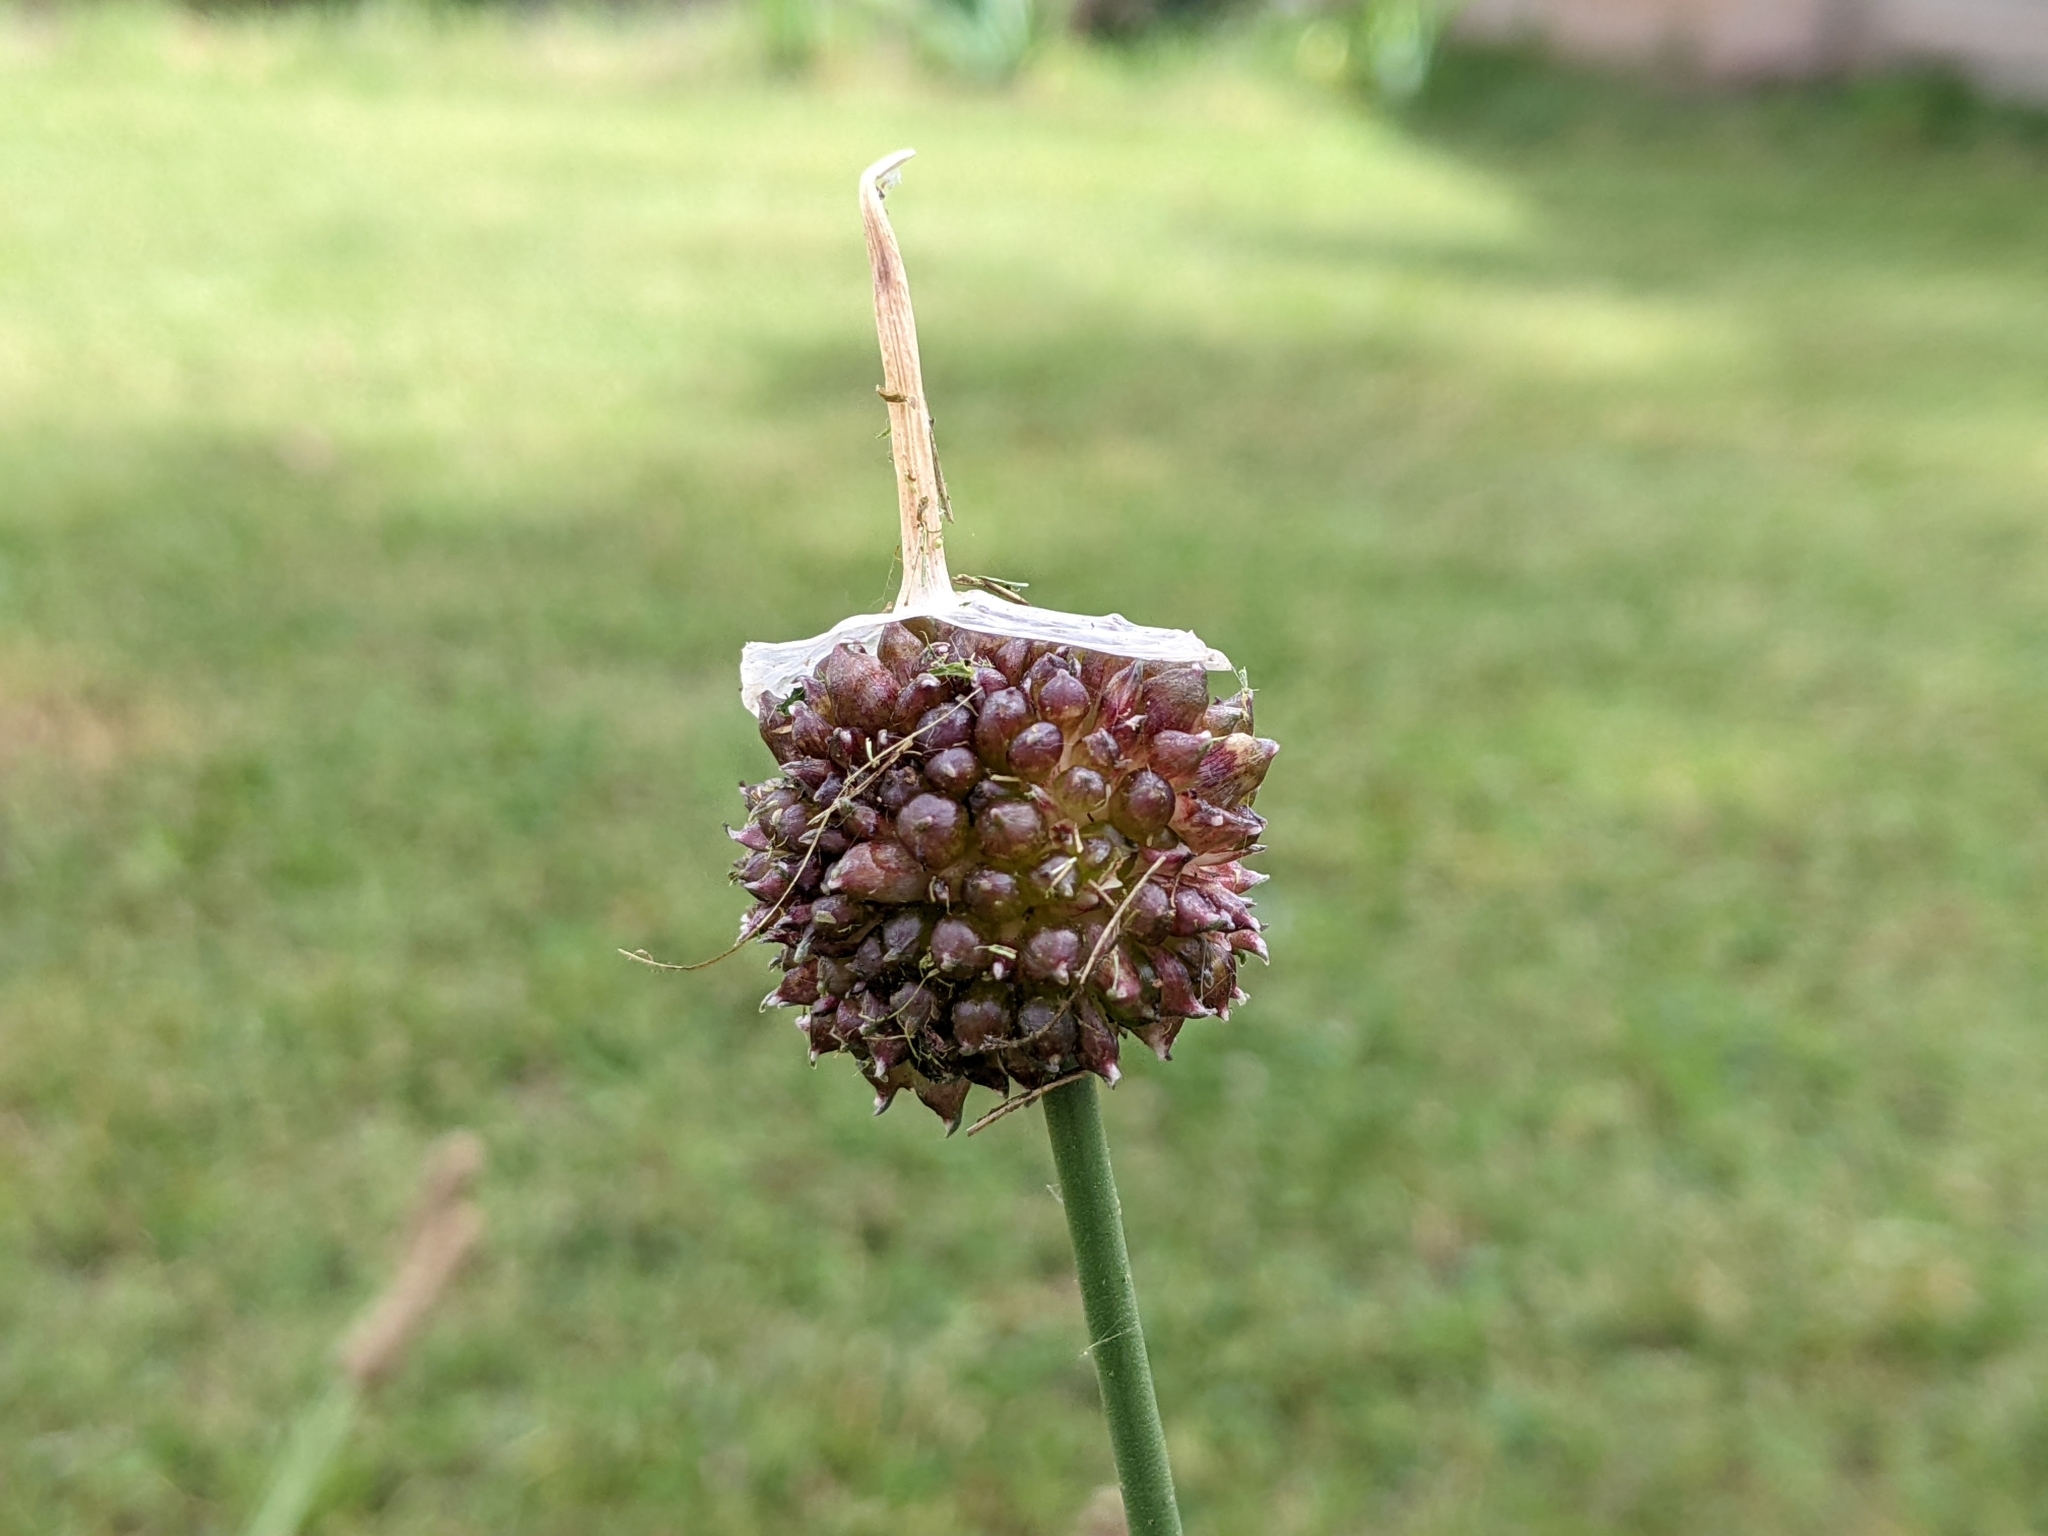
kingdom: Plantae
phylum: Tracheophyta
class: Liliopsida
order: Asparagales
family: Amaryllidaceae
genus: Allium
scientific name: Allium vineale
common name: Crow garlic
